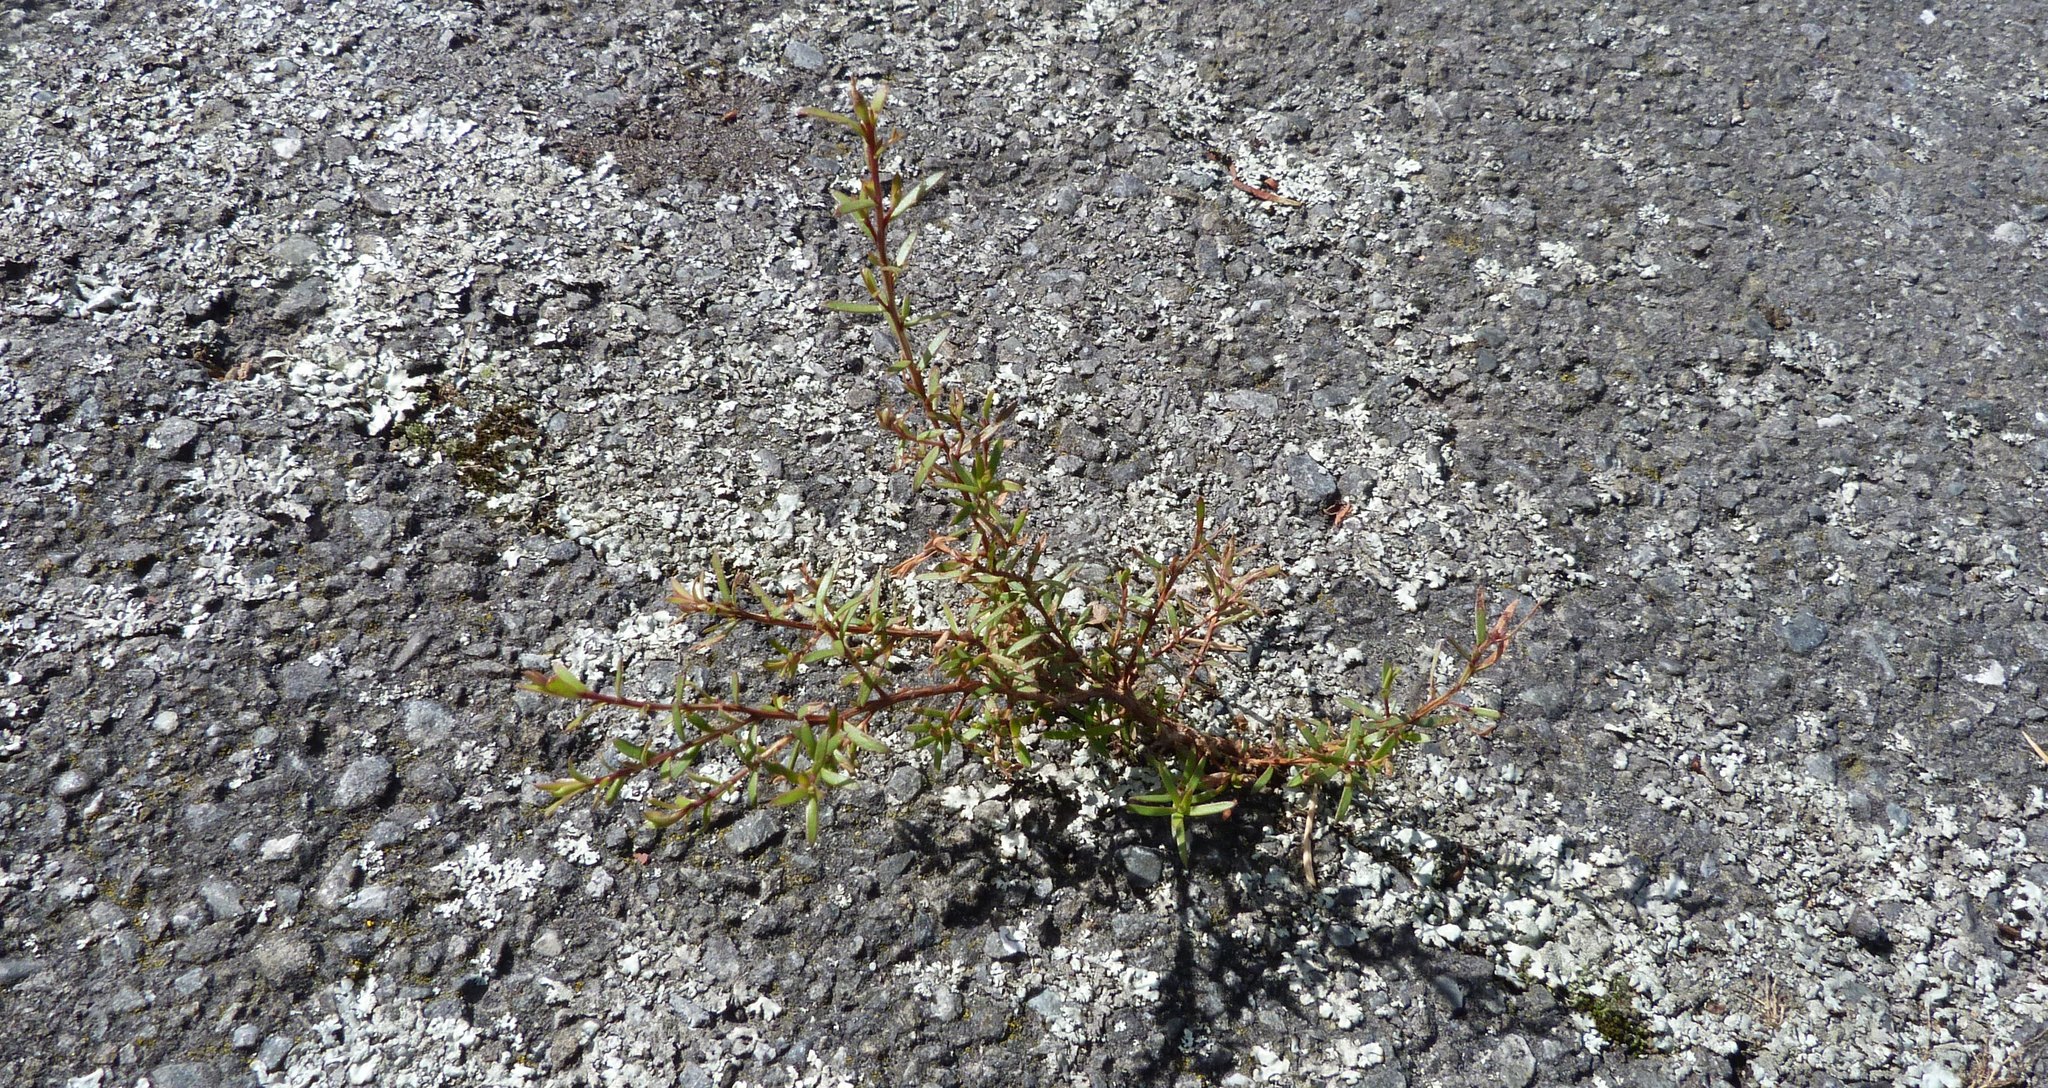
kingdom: Plantae
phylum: Tracheophyta
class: Magnoliopsida
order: Myrtales
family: Myrtaceae
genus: Kunzea
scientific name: Kunzea robusta
